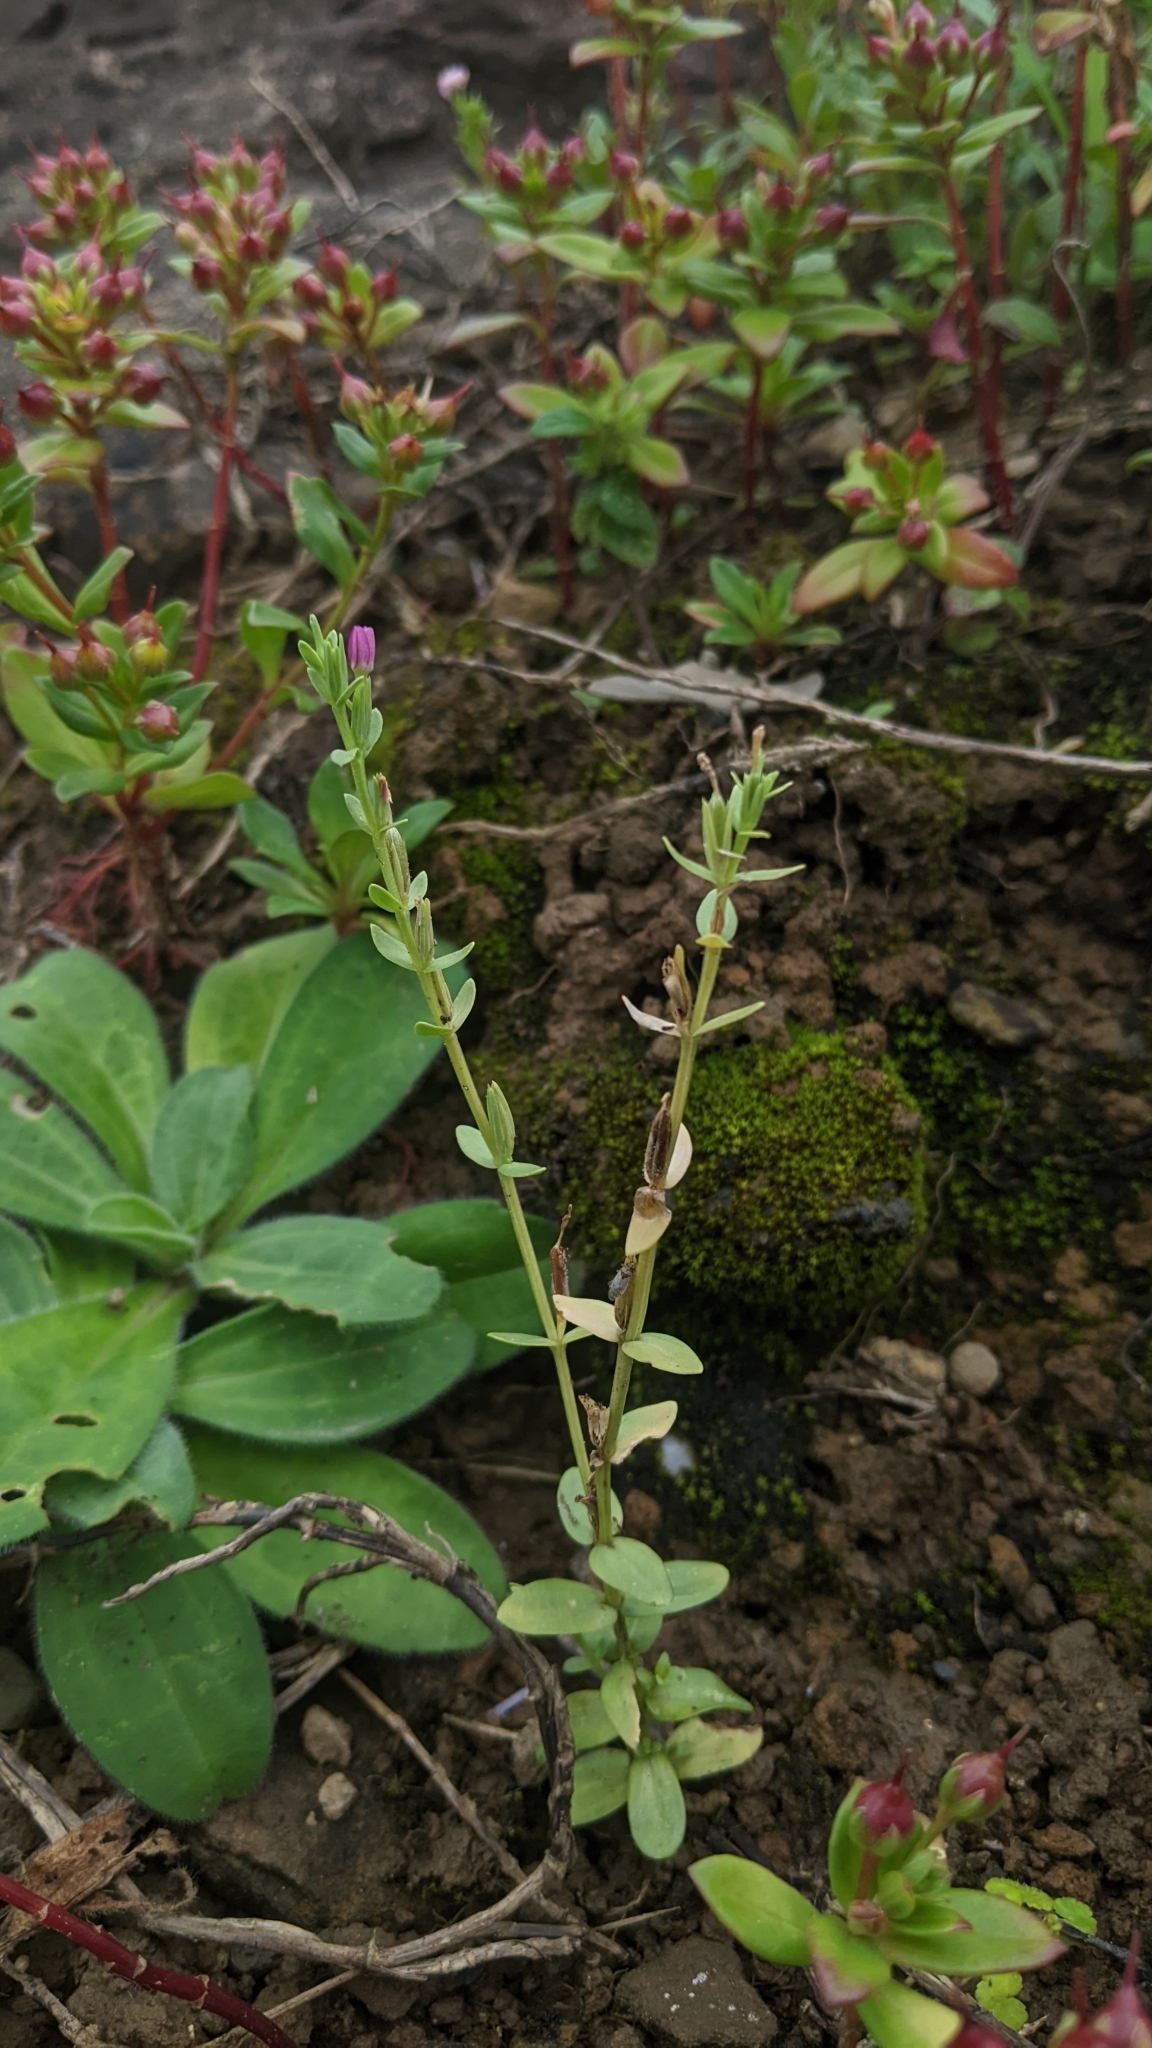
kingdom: Plantae
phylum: Tracheophyta
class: Magnoliopsida
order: Gentianales
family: Gentianaceae
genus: Schenkia
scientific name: Schenkia japonica
